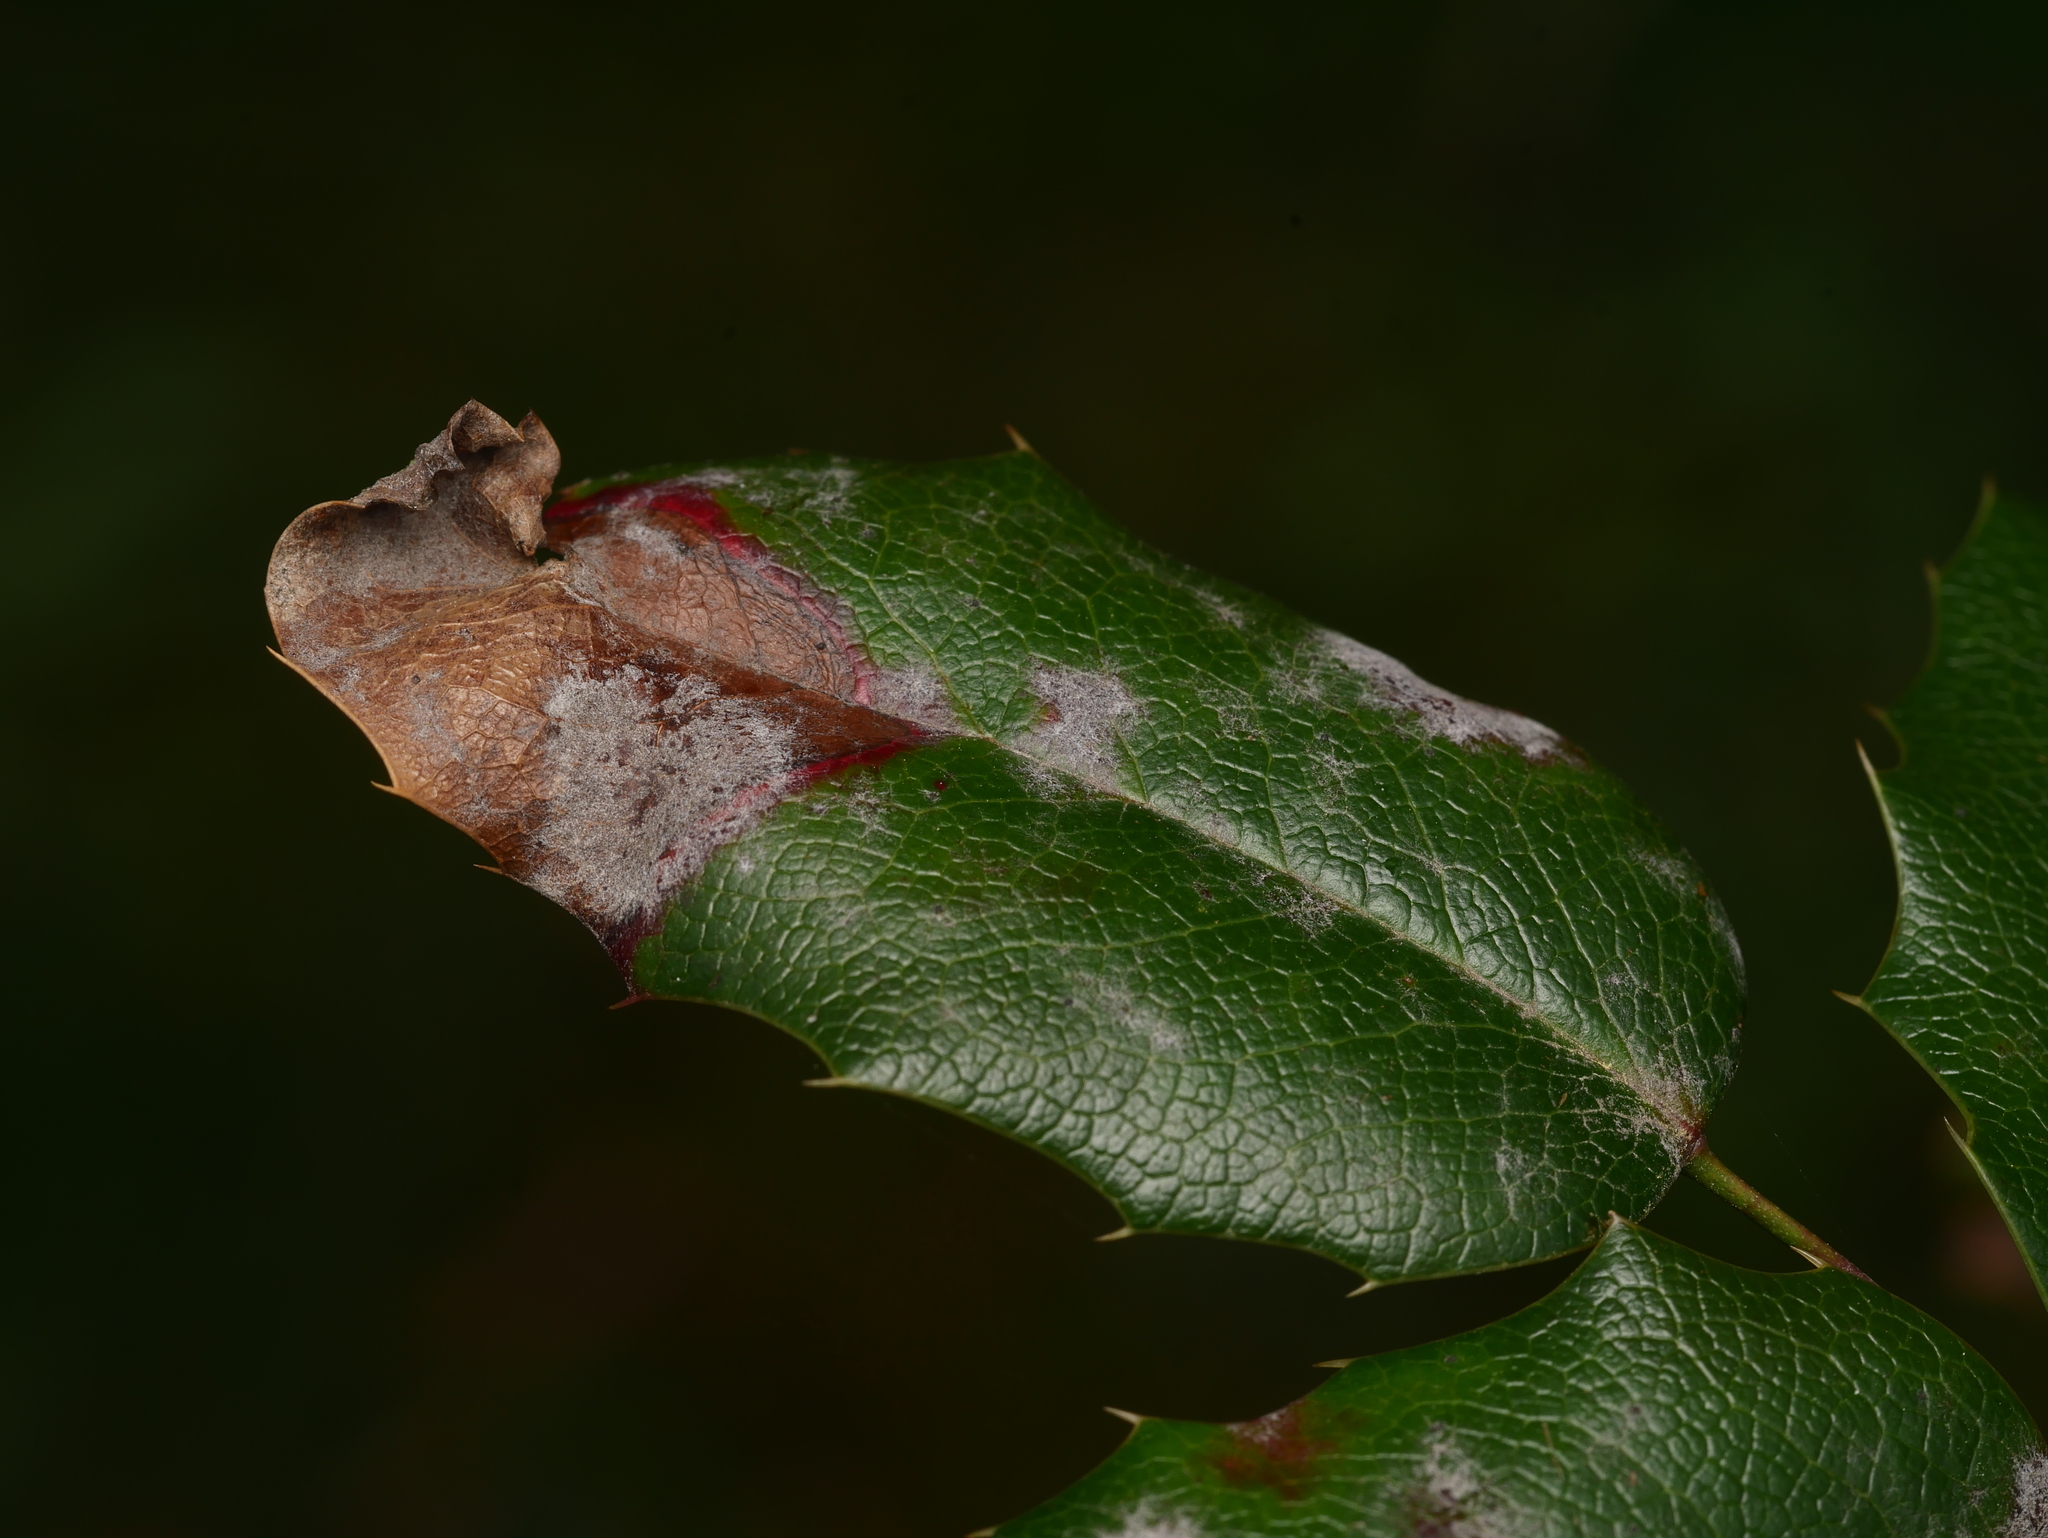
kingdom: Fungi
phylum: Ascomycota
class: Leotiomycetes
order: Helotiales
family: Erysiphaceae
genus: Erysiphe
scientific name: Erysiphe berberidis
